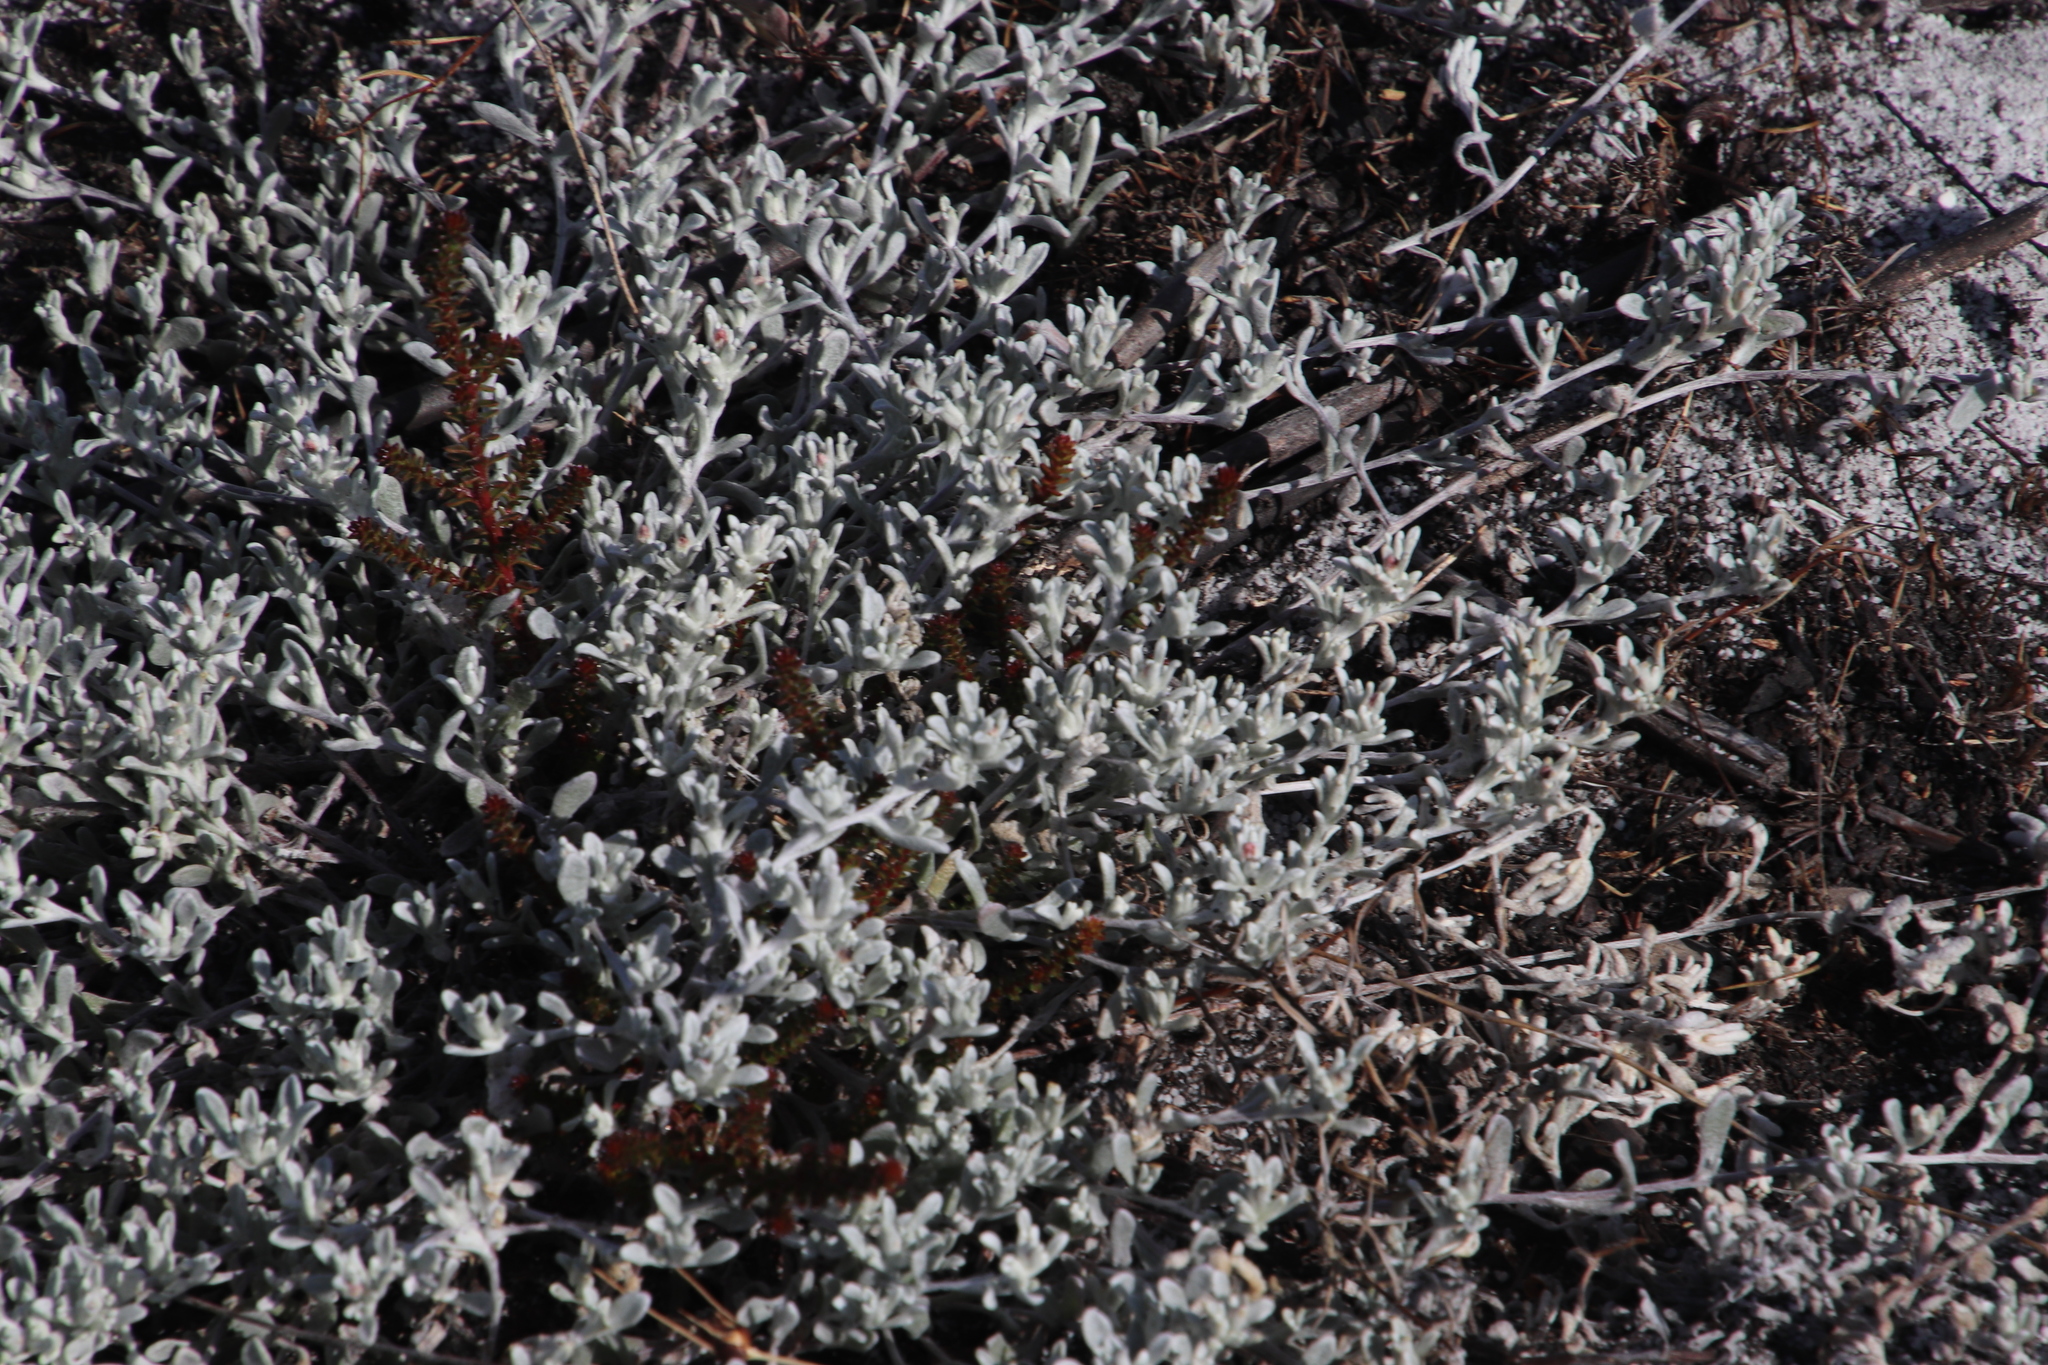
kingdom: Plantae
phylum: Tracheophyta
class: Magnoliopsida
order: Asterales
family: Asteraceae
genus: Helichrysum
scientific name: Helichrysum tinctum
